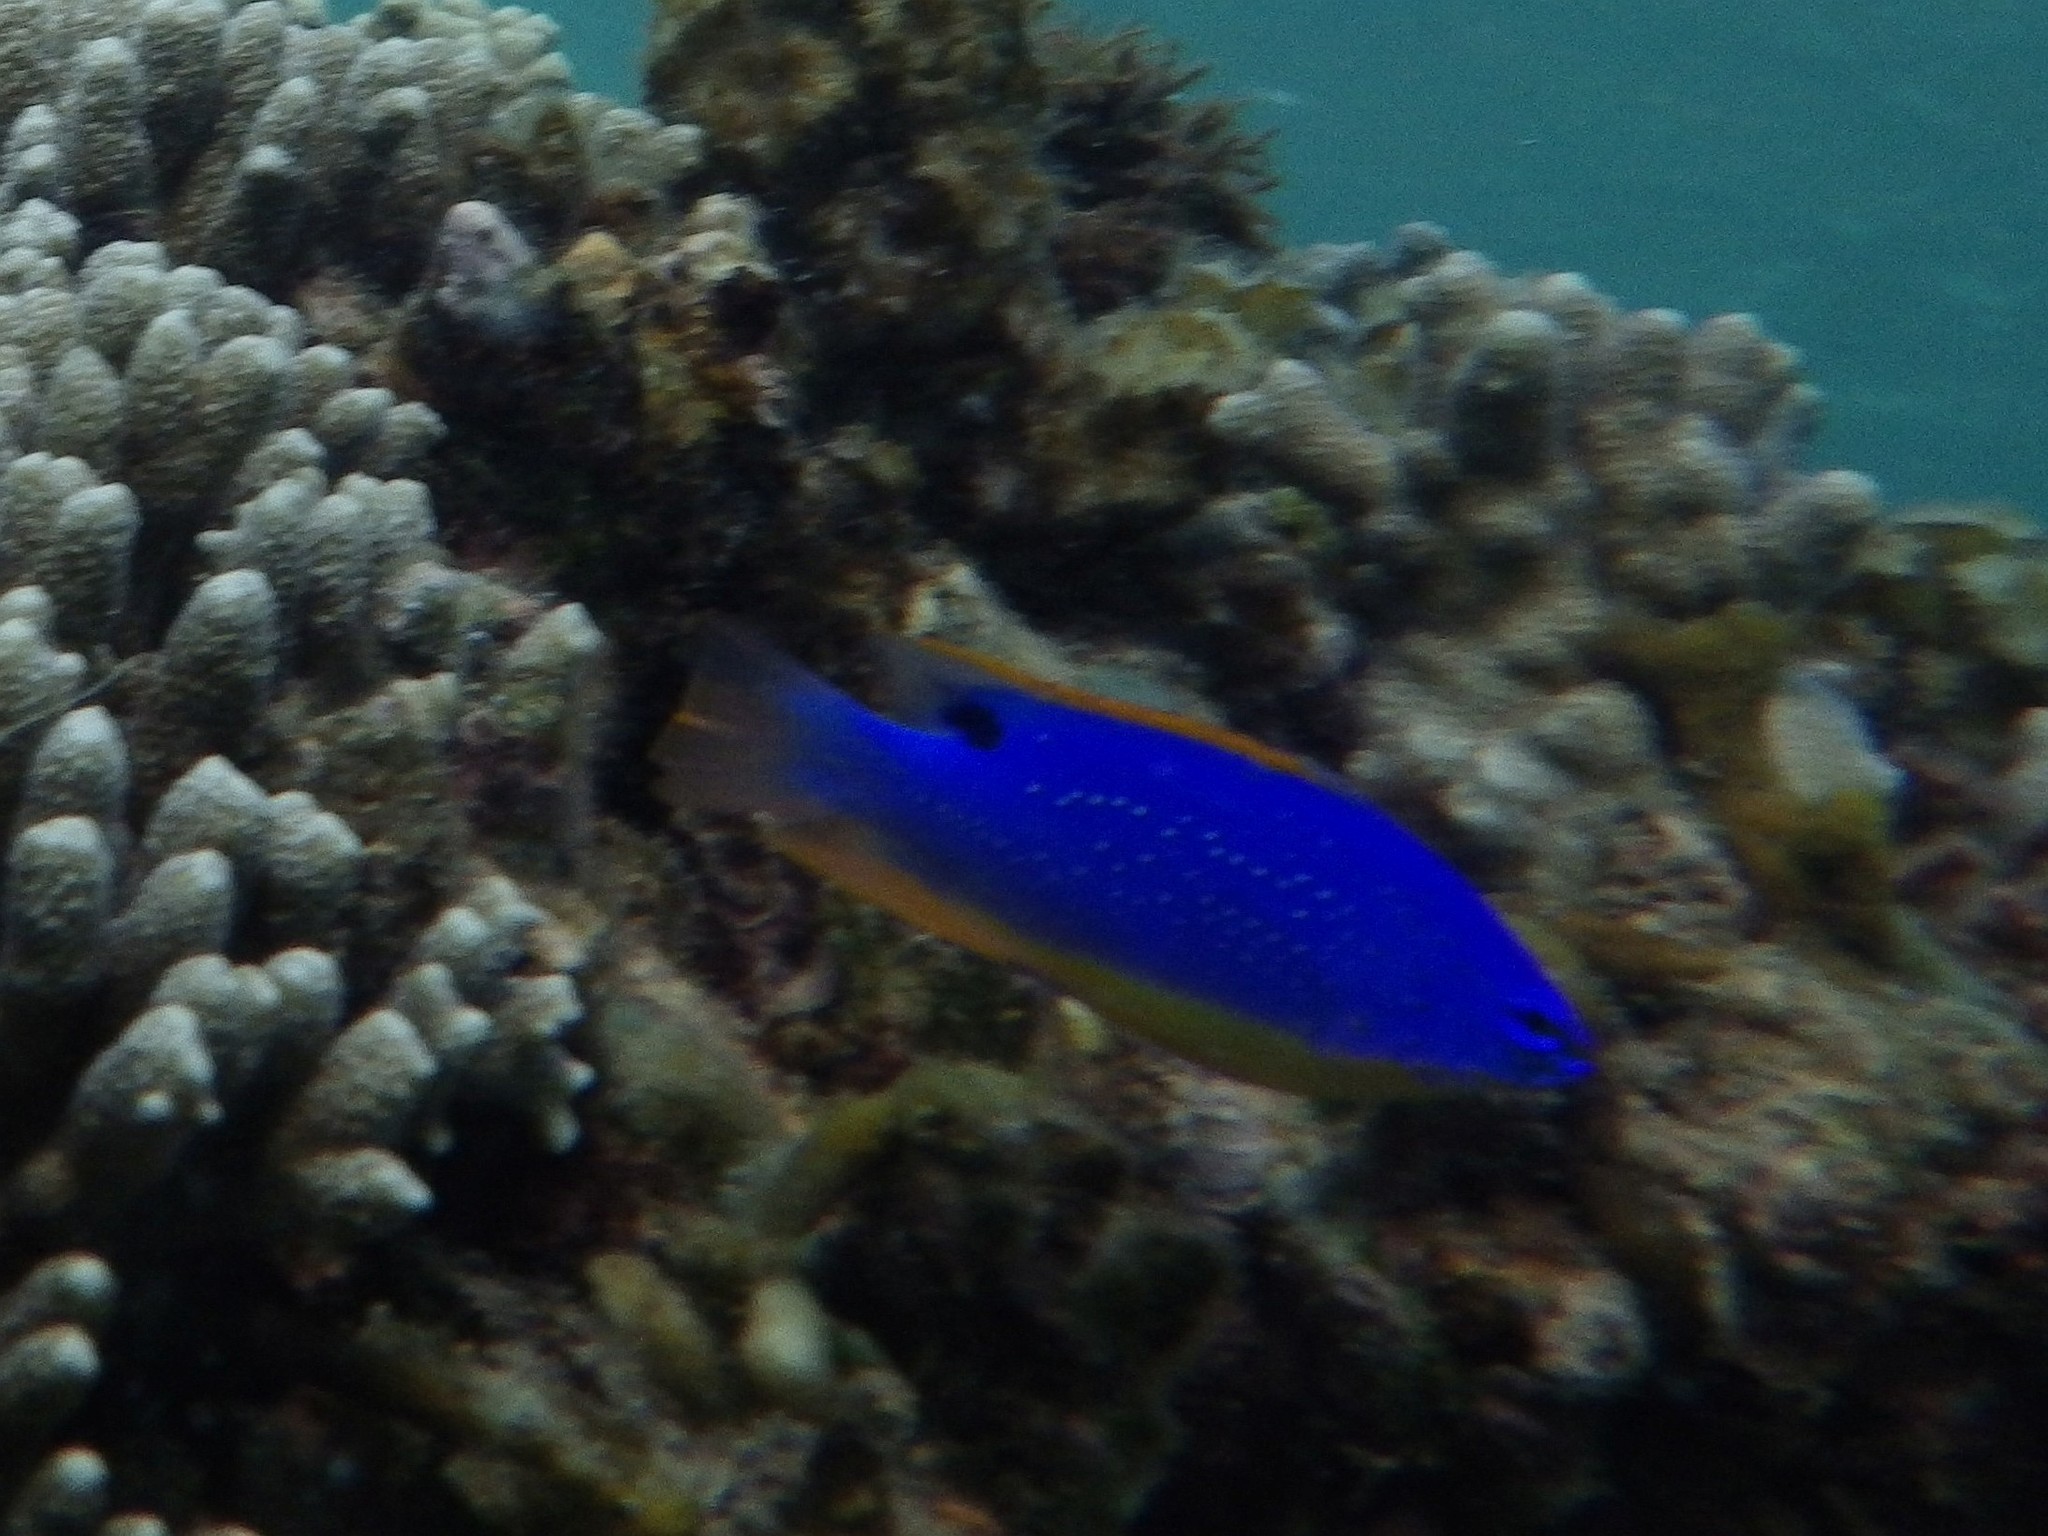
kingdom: Animalia
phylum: Chordata
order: Perciformes
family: Pomacentridae
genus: Chrysiptera
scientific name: Chrysiptera taupou
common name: Fiji damsel
